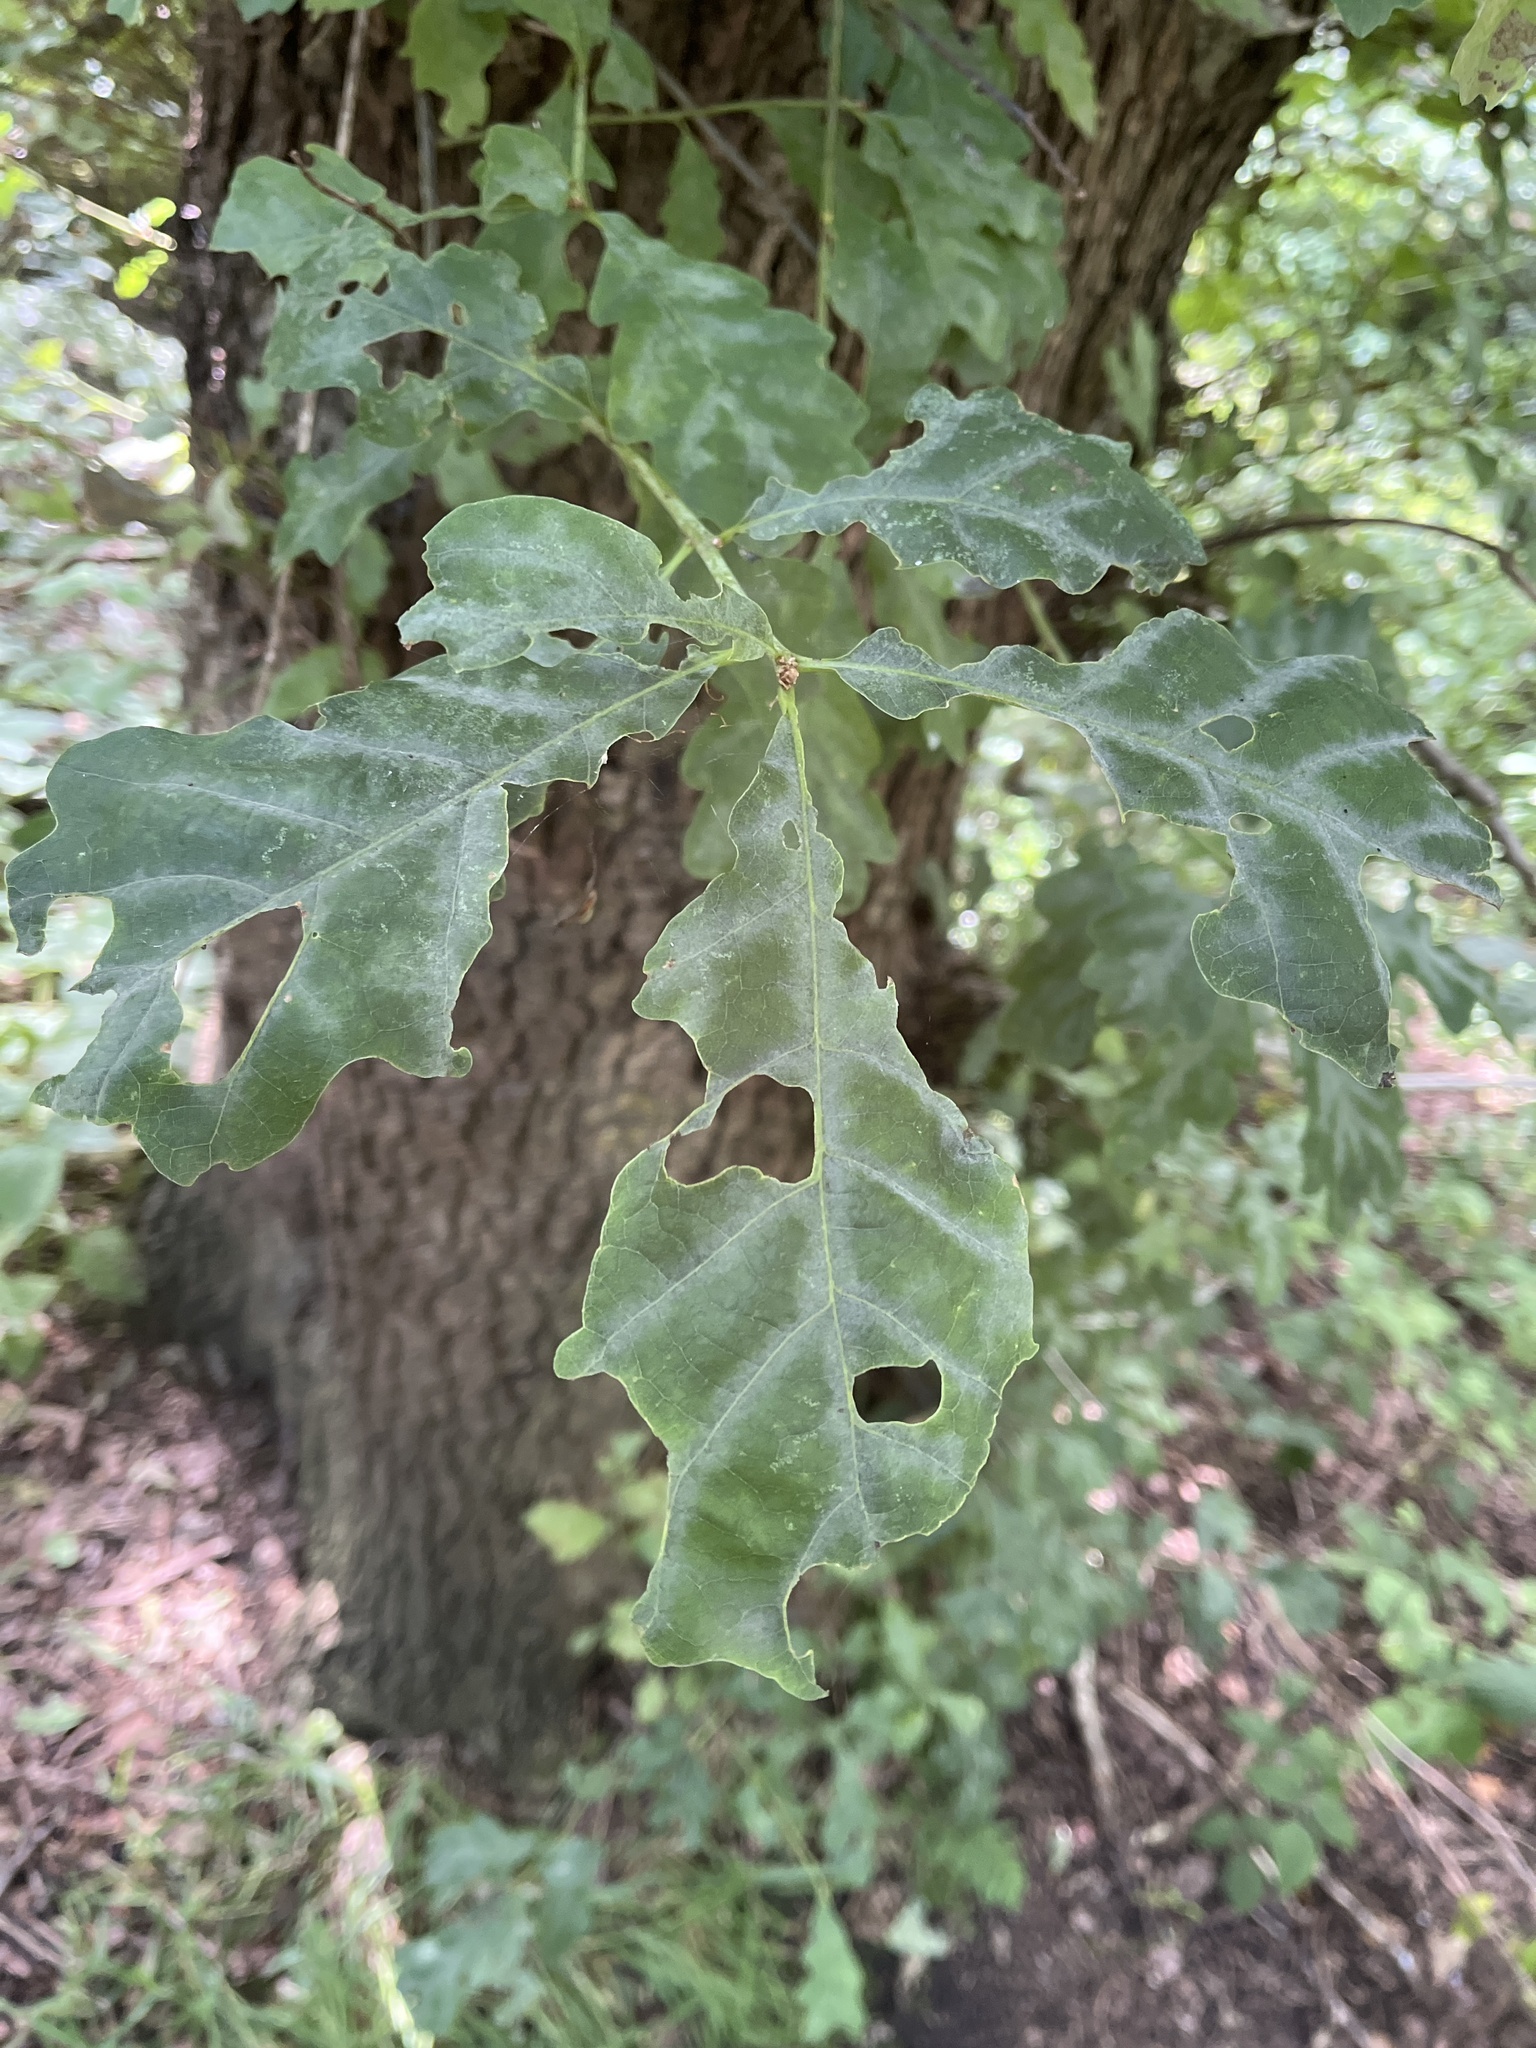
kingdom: Fungi
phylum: Ascomycota
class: Leotiomycetes
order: Helotiales
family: Erysiphaceae
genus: Erysiphe
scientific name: Erysiphe alphitoides
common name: Oak mildew
